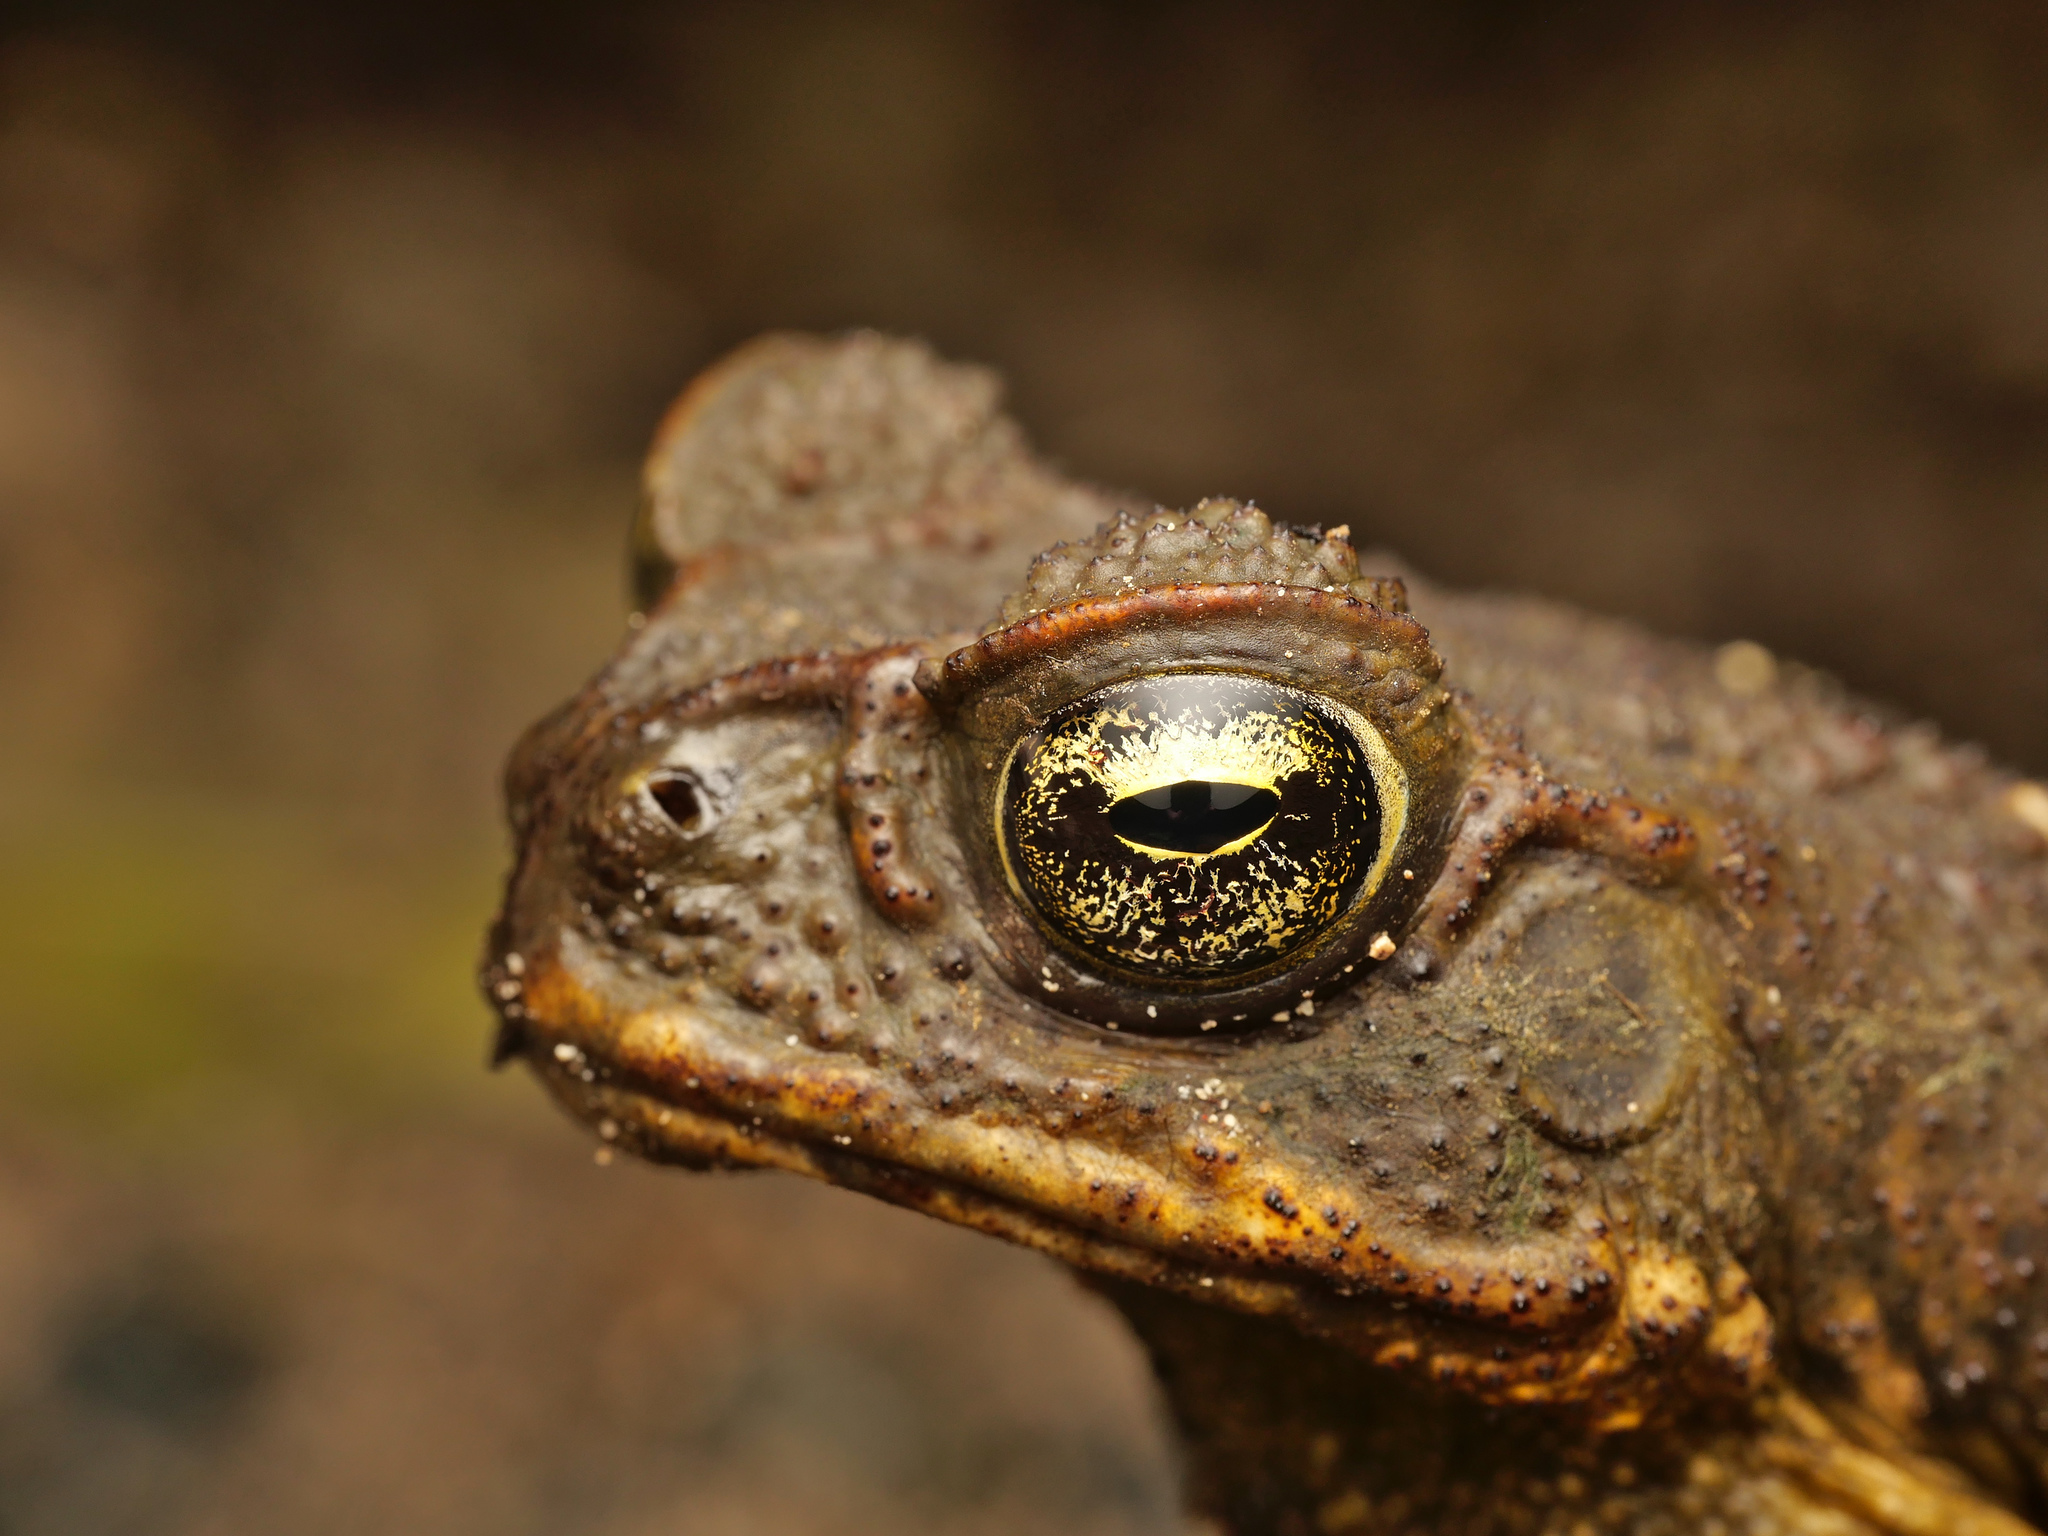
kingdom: Animalia
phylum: Chordata
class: Amphibia
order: Anura
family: Bufonidae
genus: Rhinella
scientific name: Rhinella marina
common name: Cane toad
